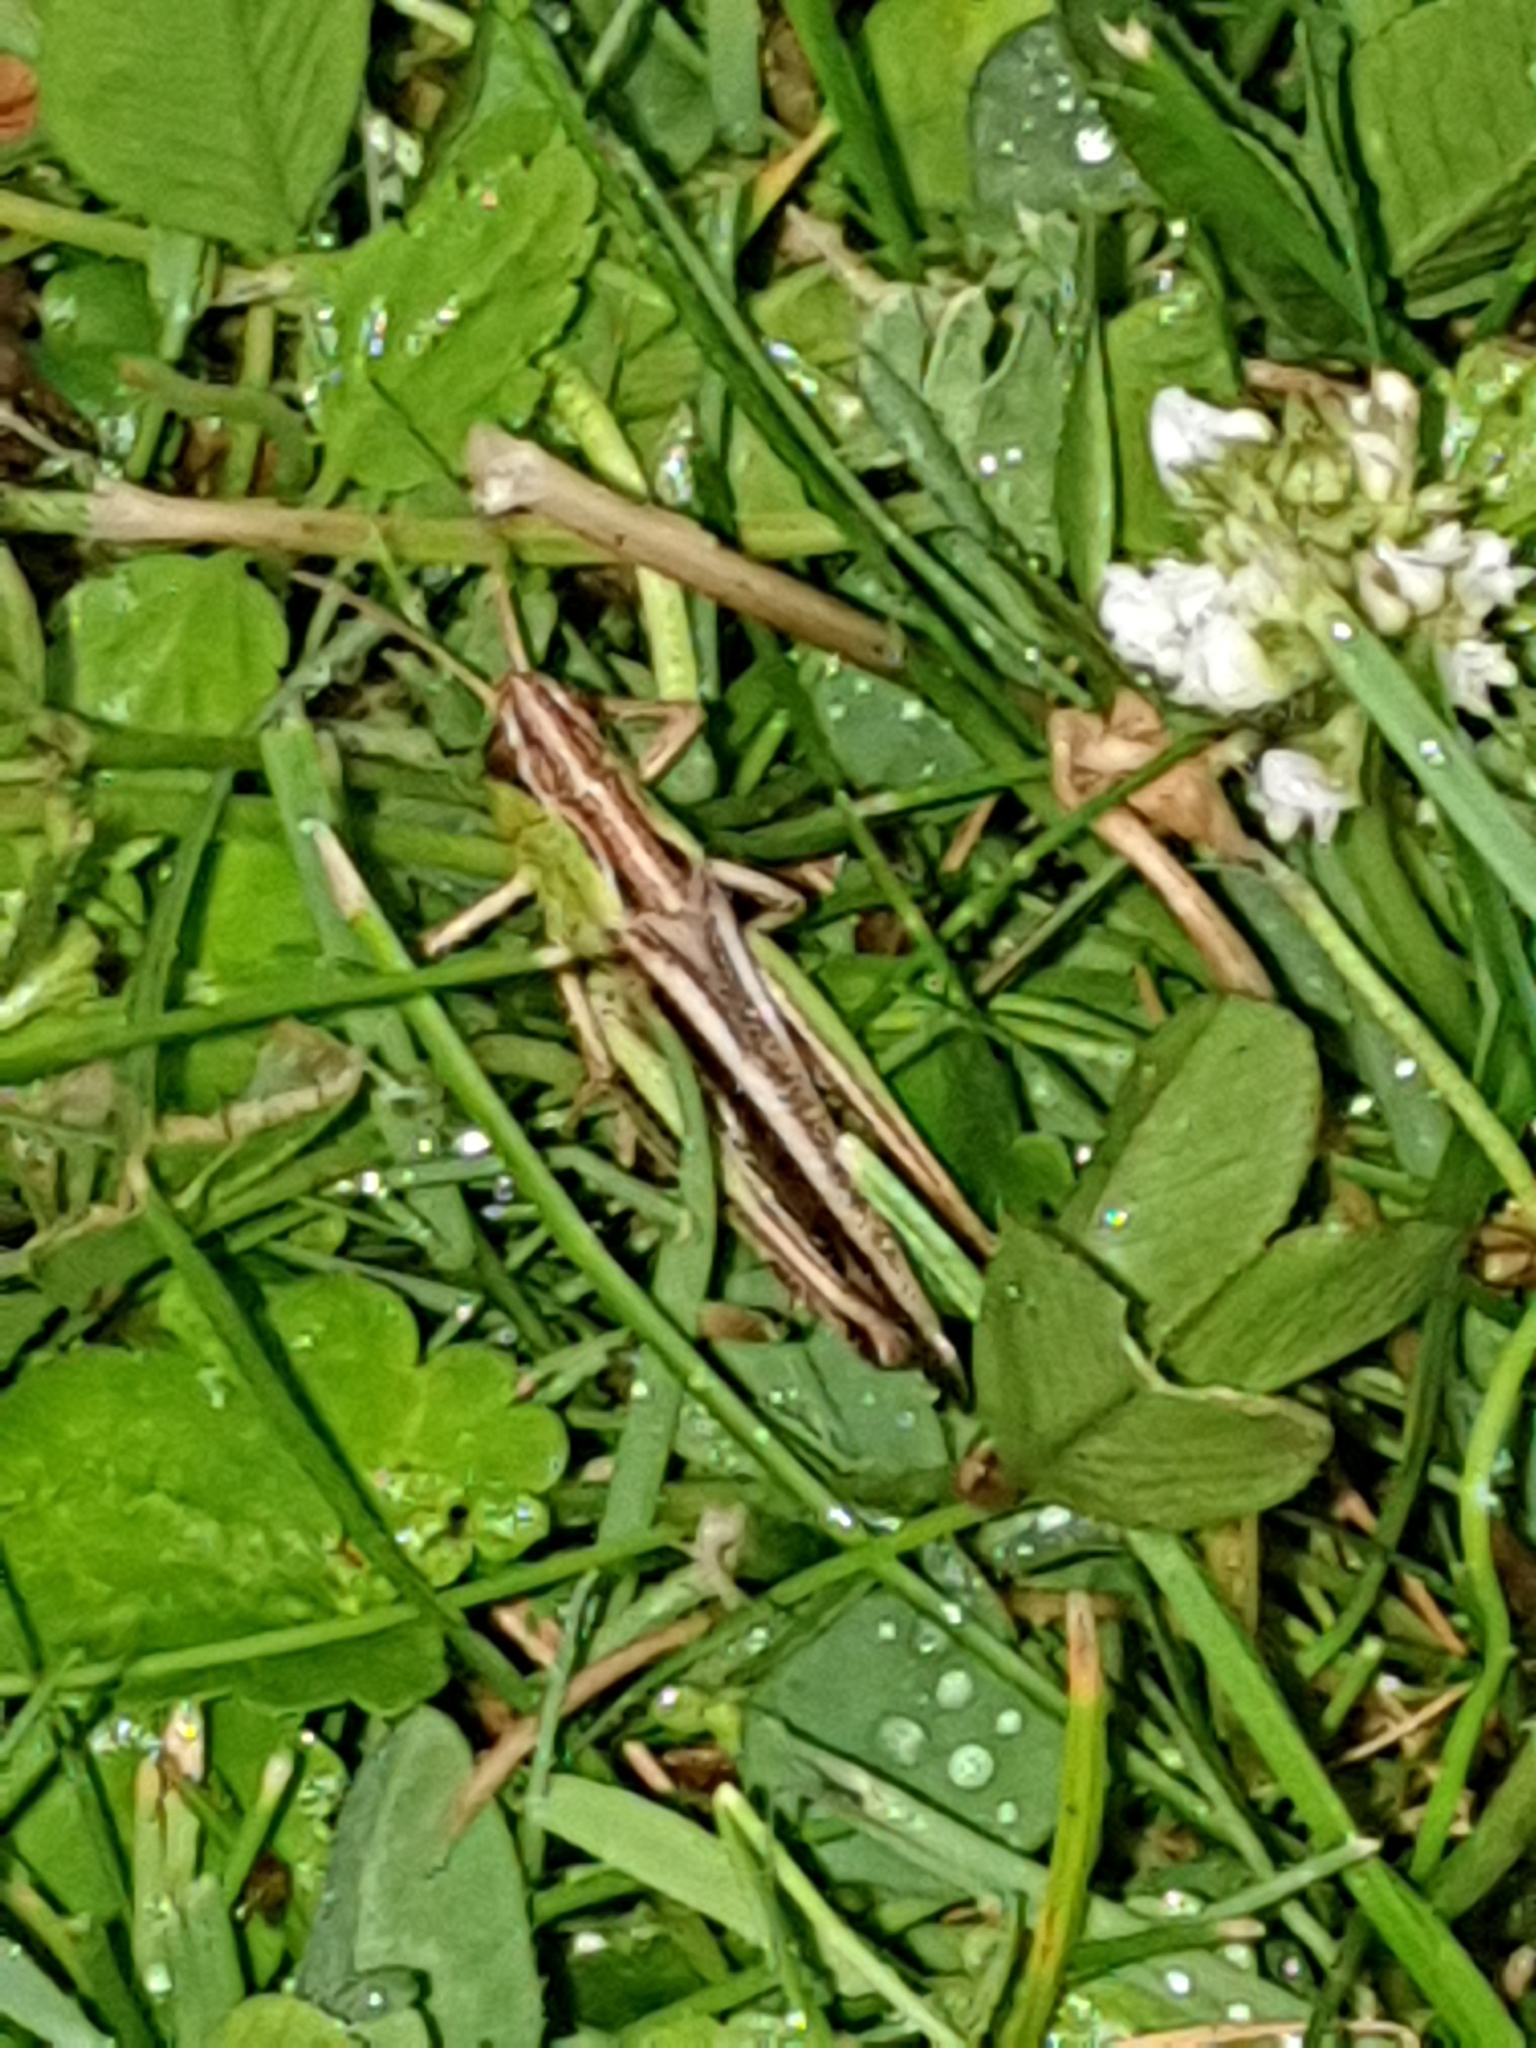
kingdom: Animalia
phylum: Arthropoda
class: Insecta
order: Orthoptera
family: Acrididae
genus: Stenobothrus
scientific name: Stenobothrus lineatus
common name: Stripe-winged grasshopper
